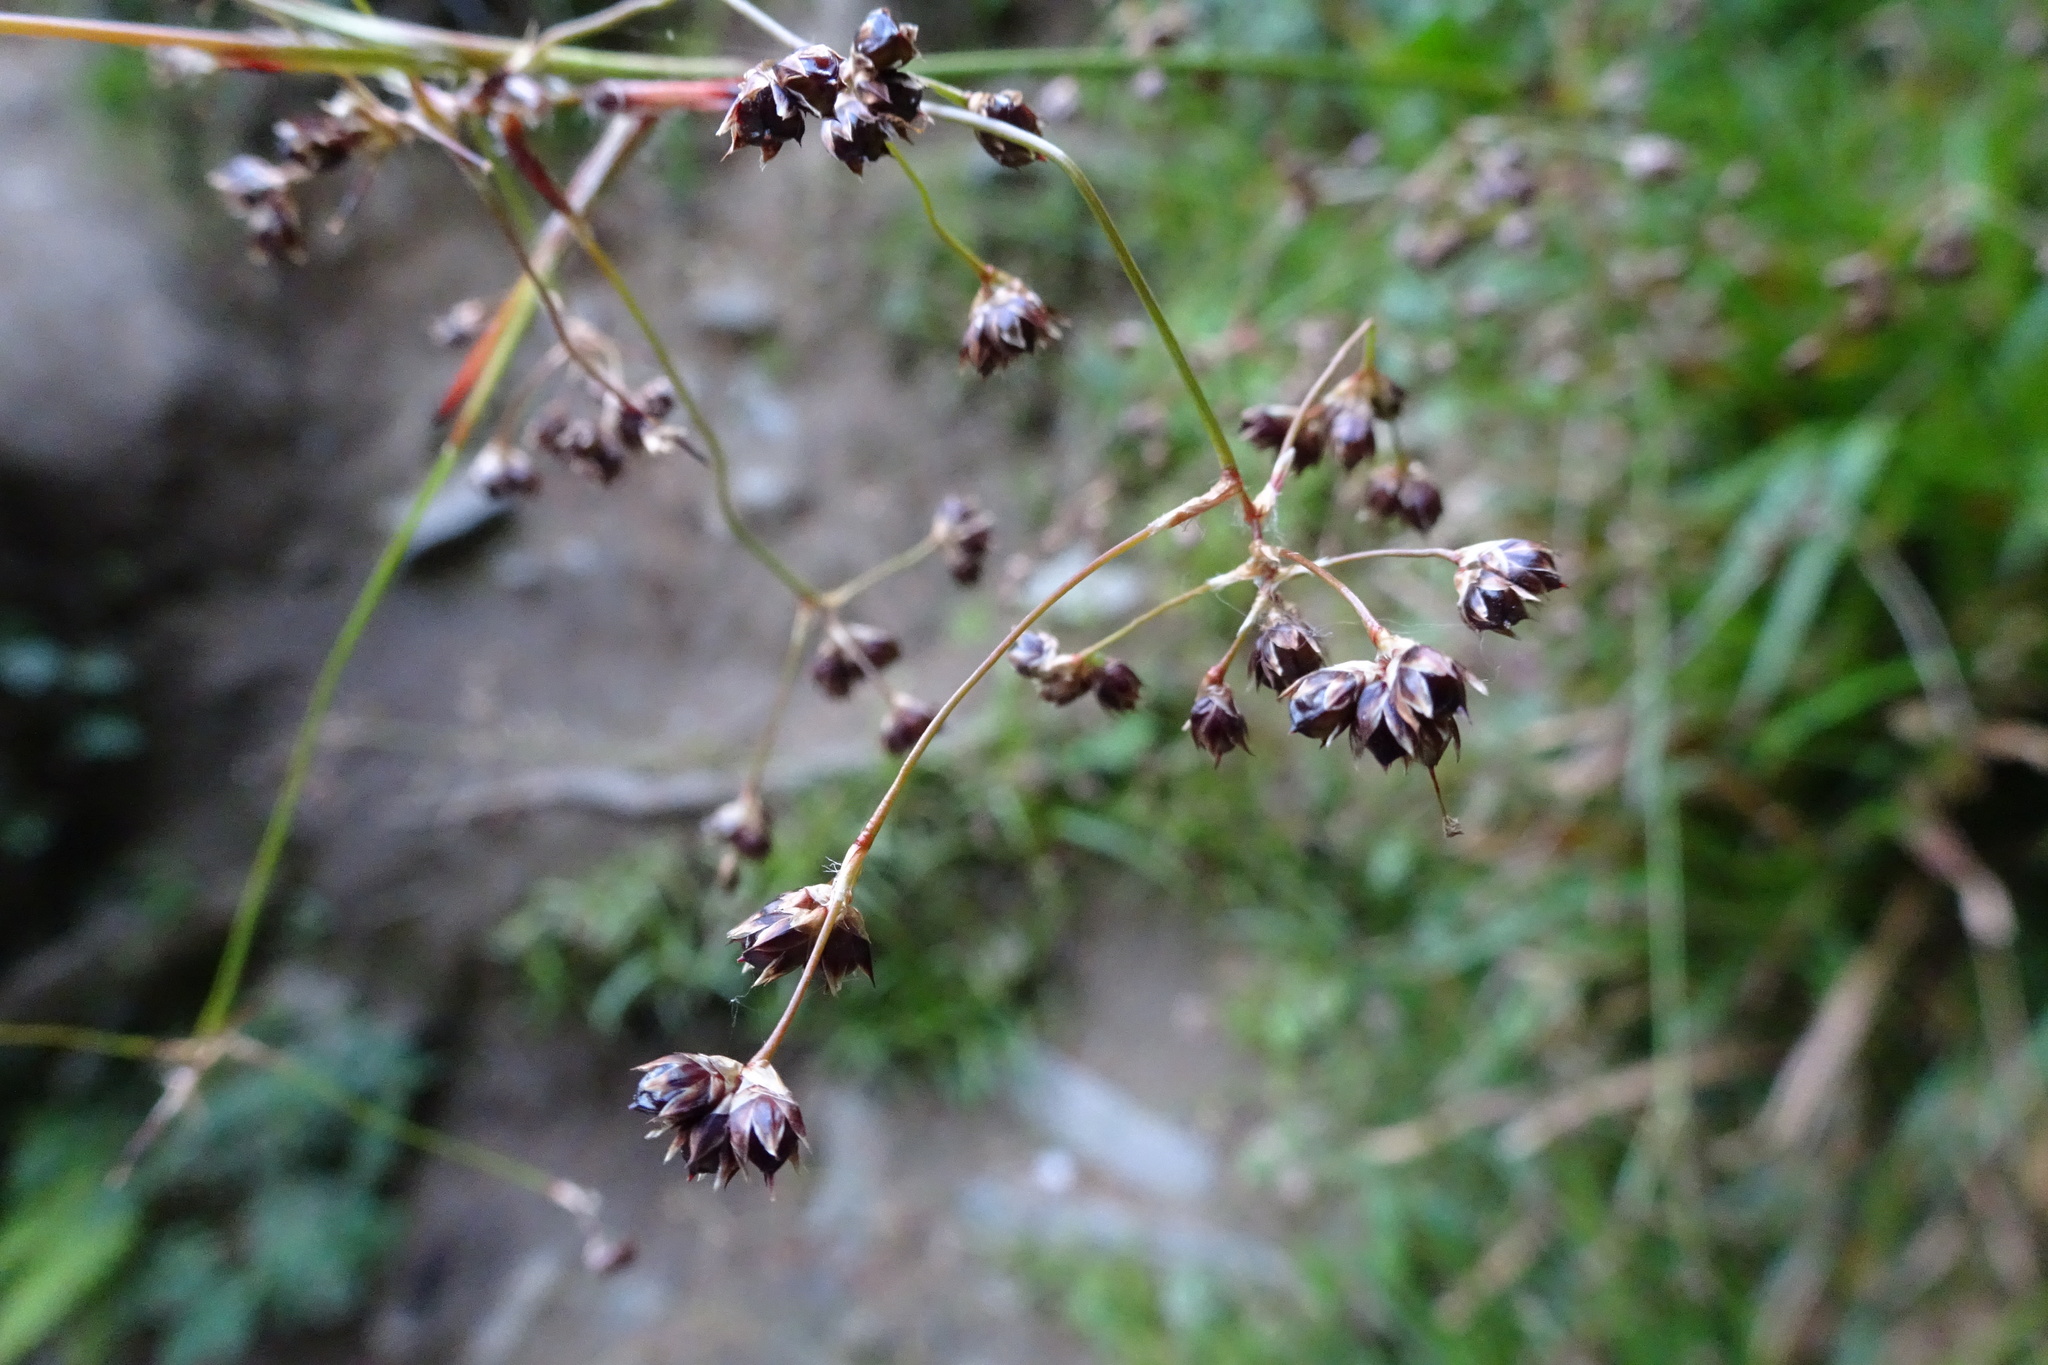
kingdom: Plantae
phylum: Tracheophyta
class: Liliopsida
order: Poales
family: Juncaceae
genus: Luzula
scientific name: Luzula sylvatica
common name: Great wood-rush
